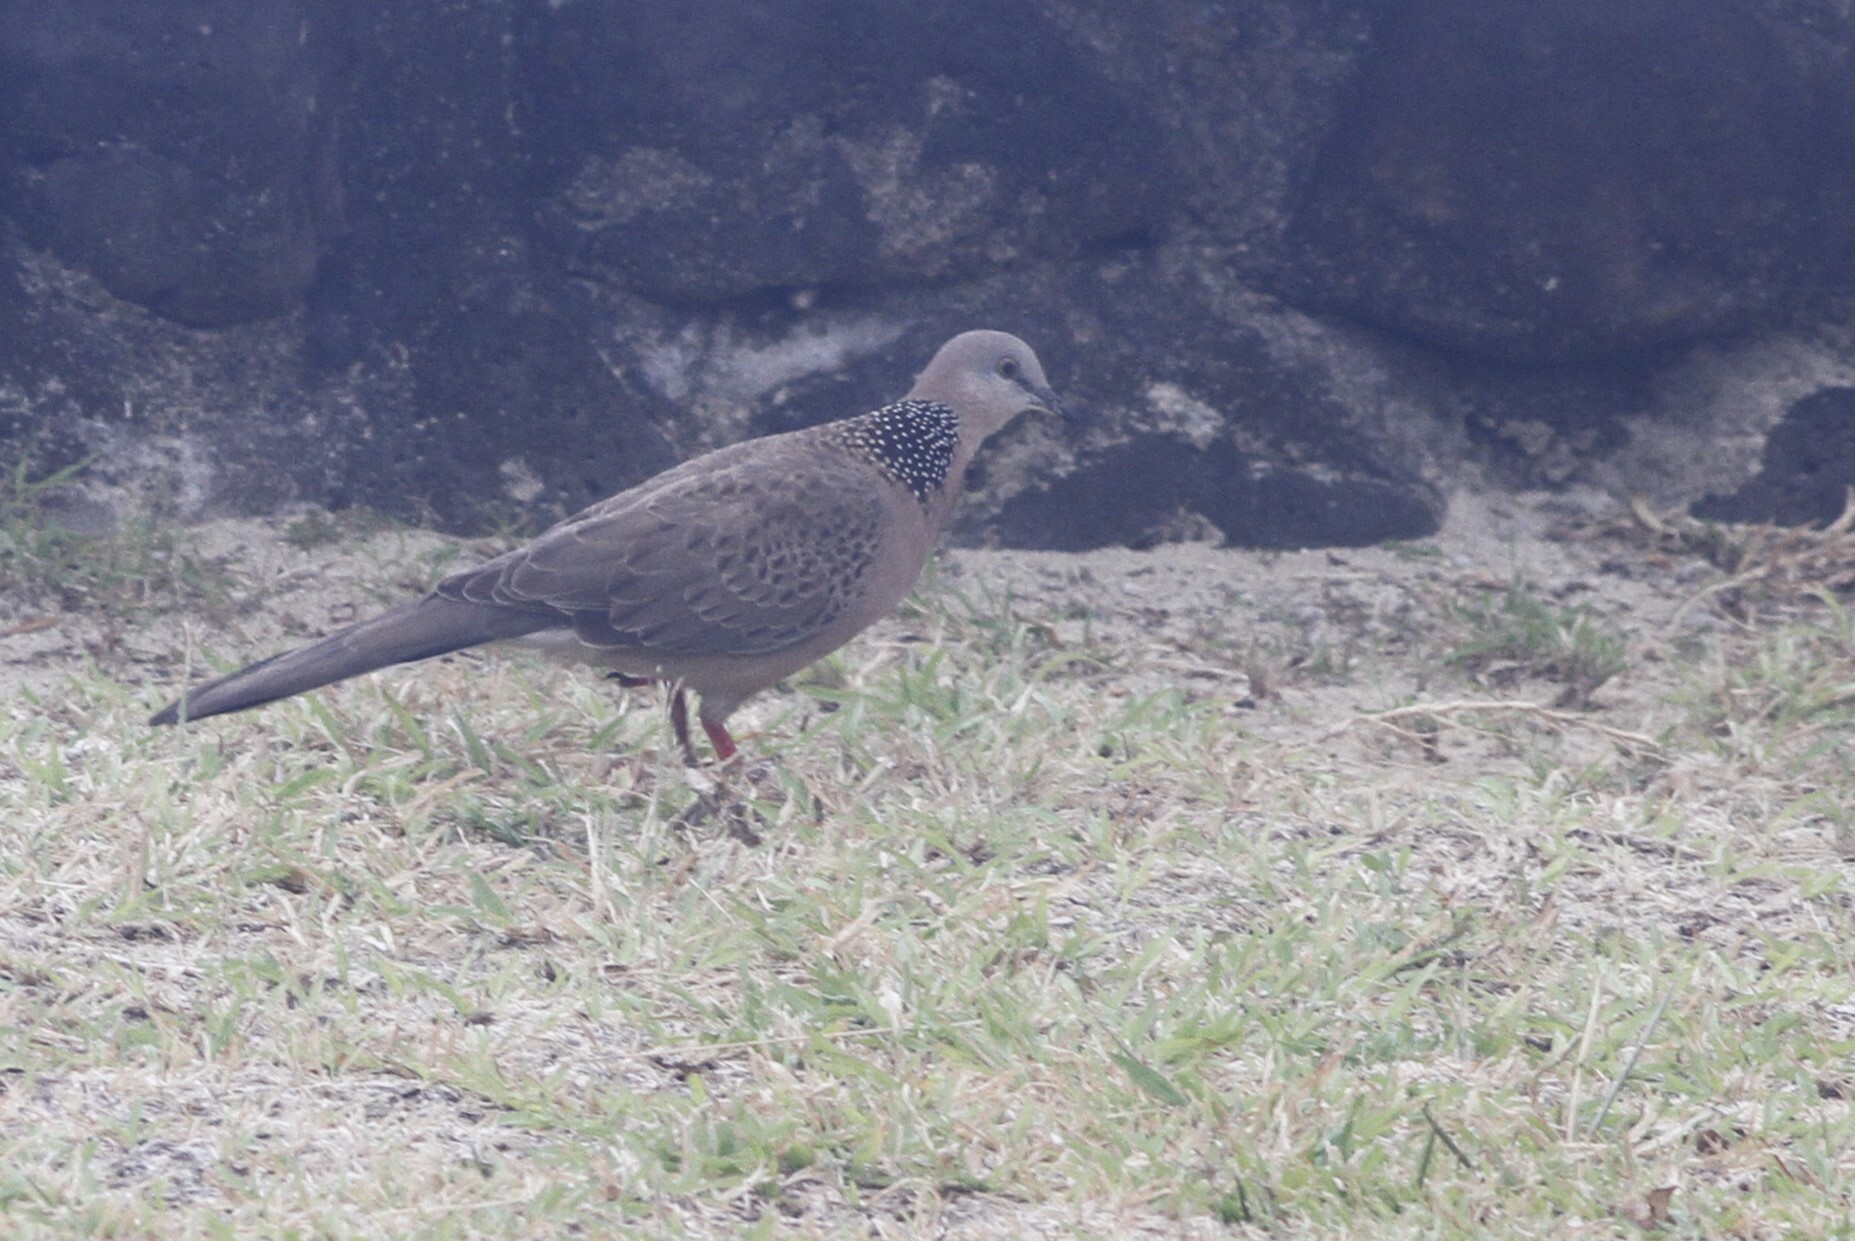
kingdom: Animalia
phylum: Chordata
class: Aves
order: Columbiformes
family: Columbidae
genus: Spilopelia
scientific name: Spilopelia chinensis
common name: Spotted dove
